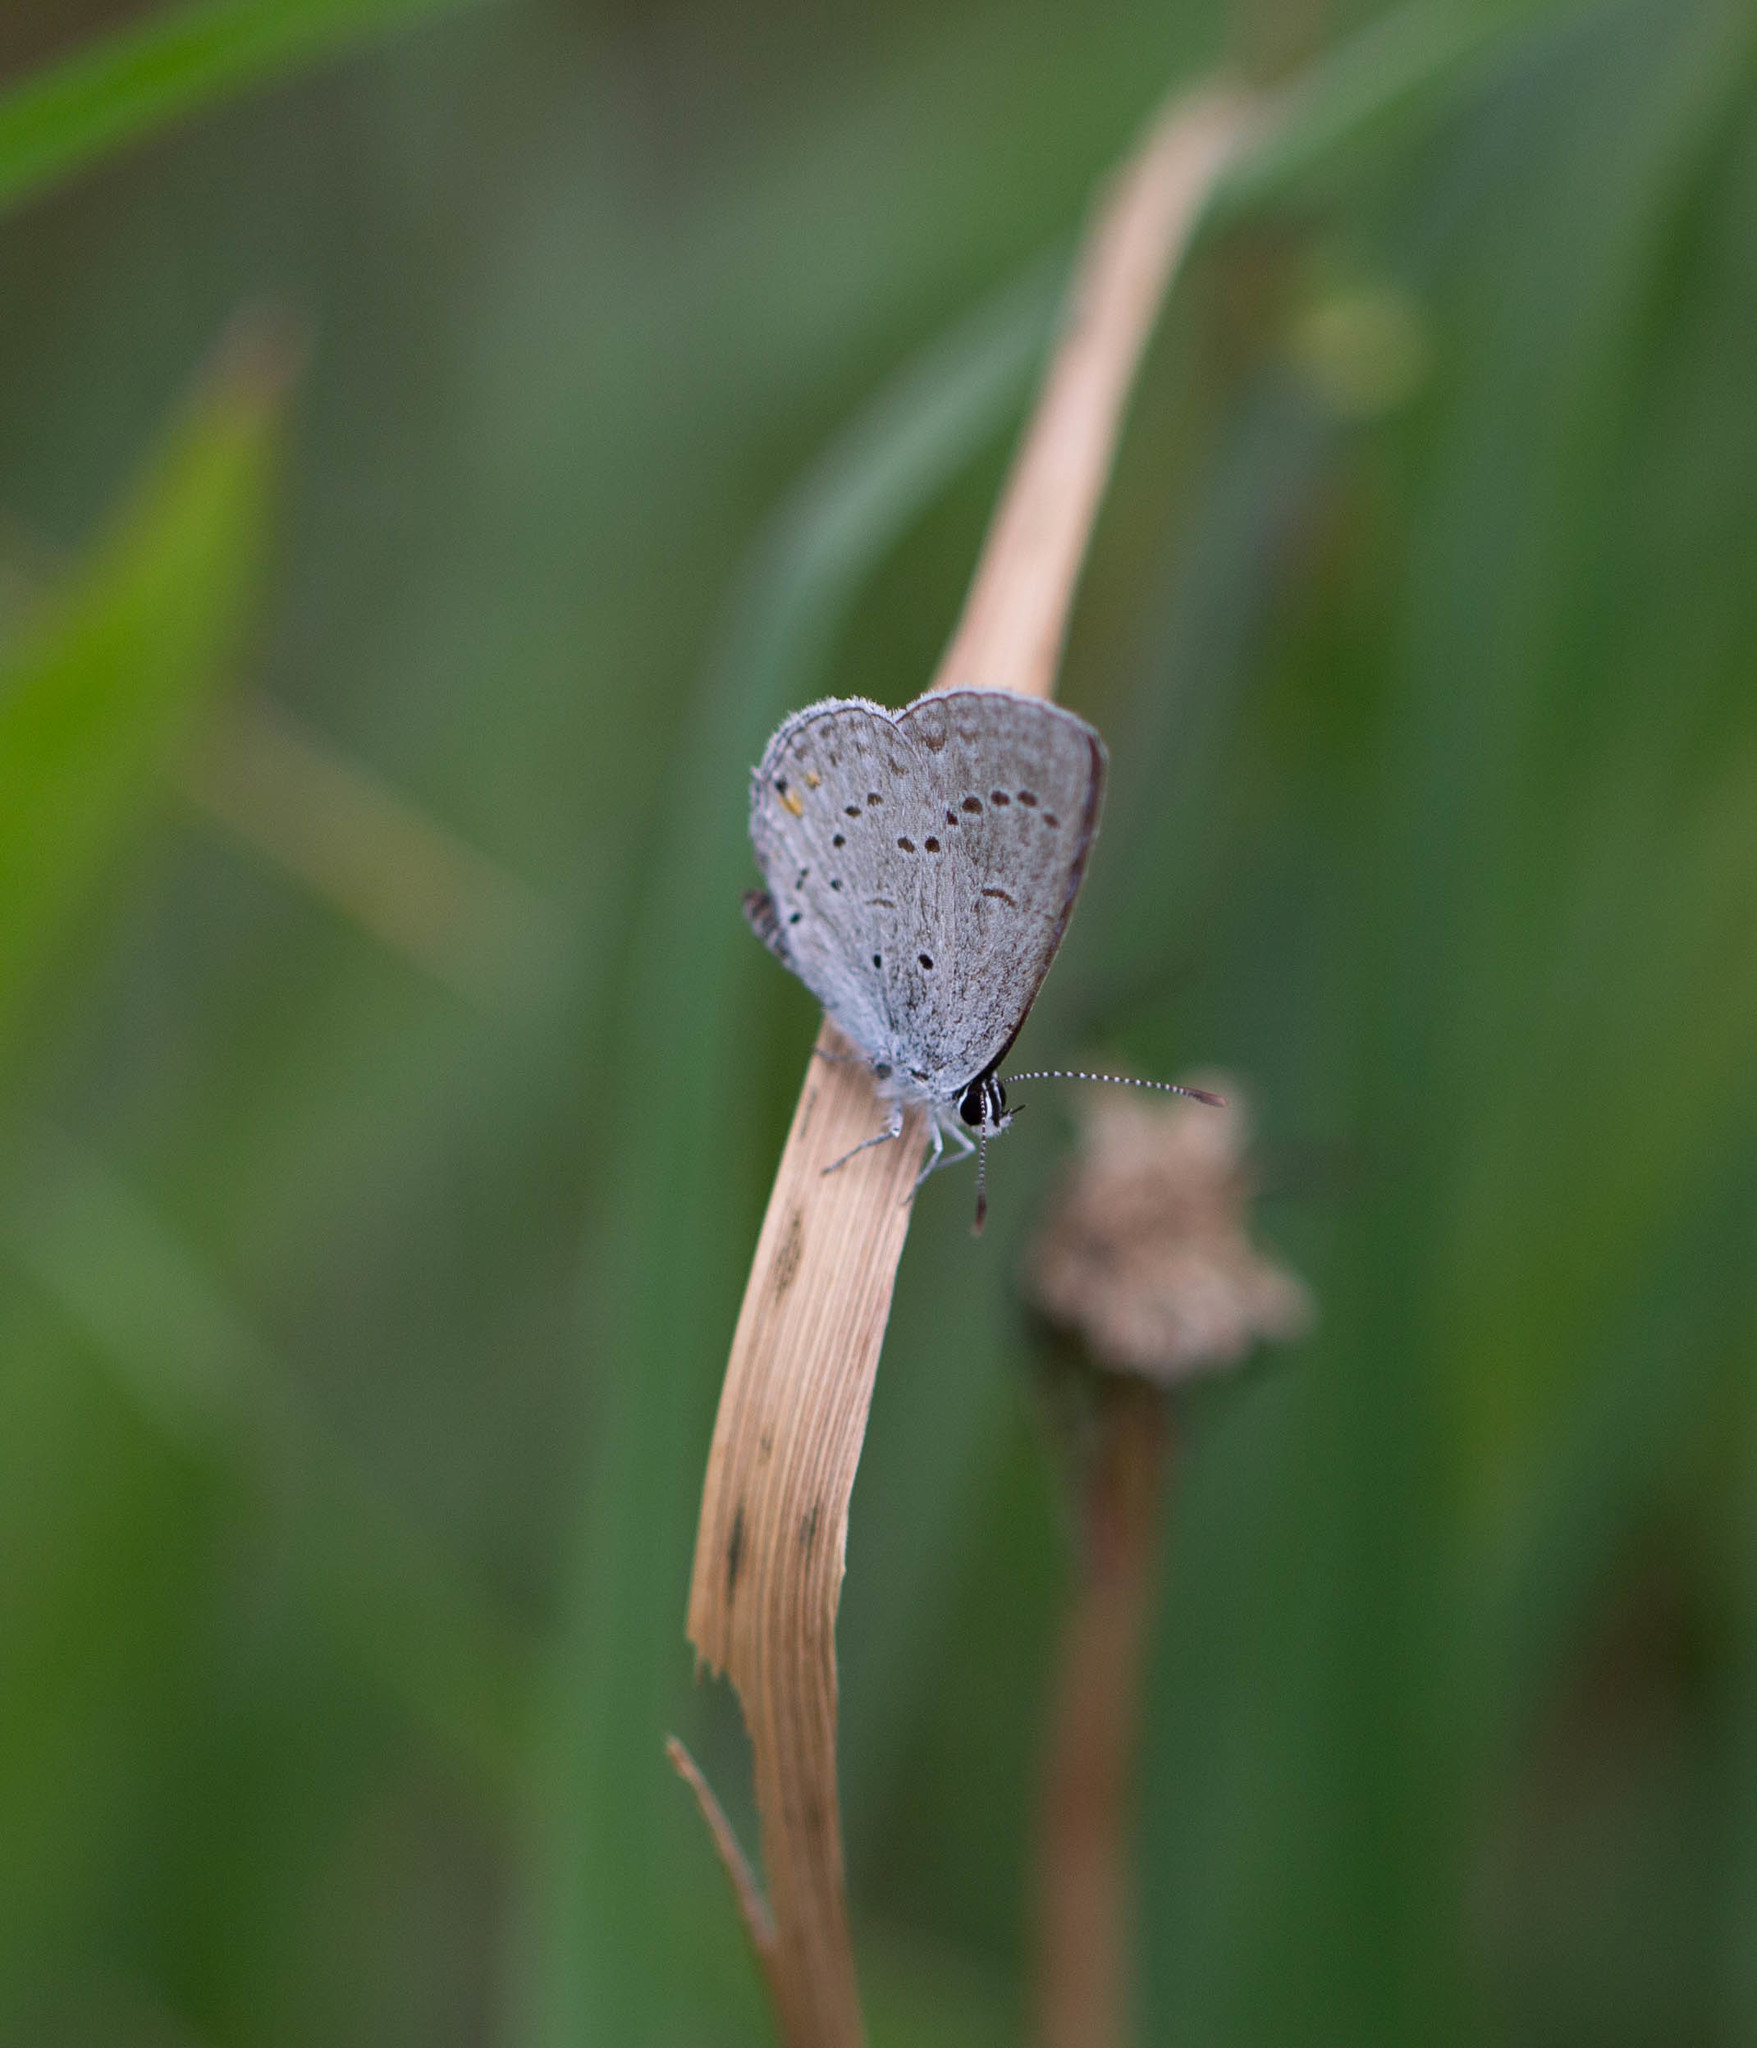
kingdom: Animalia
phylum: Arthropoda
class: Insecta
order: Lepidoptera
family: Lycaenidae
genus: Elkalyce
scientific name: Elkalyce comyntas
